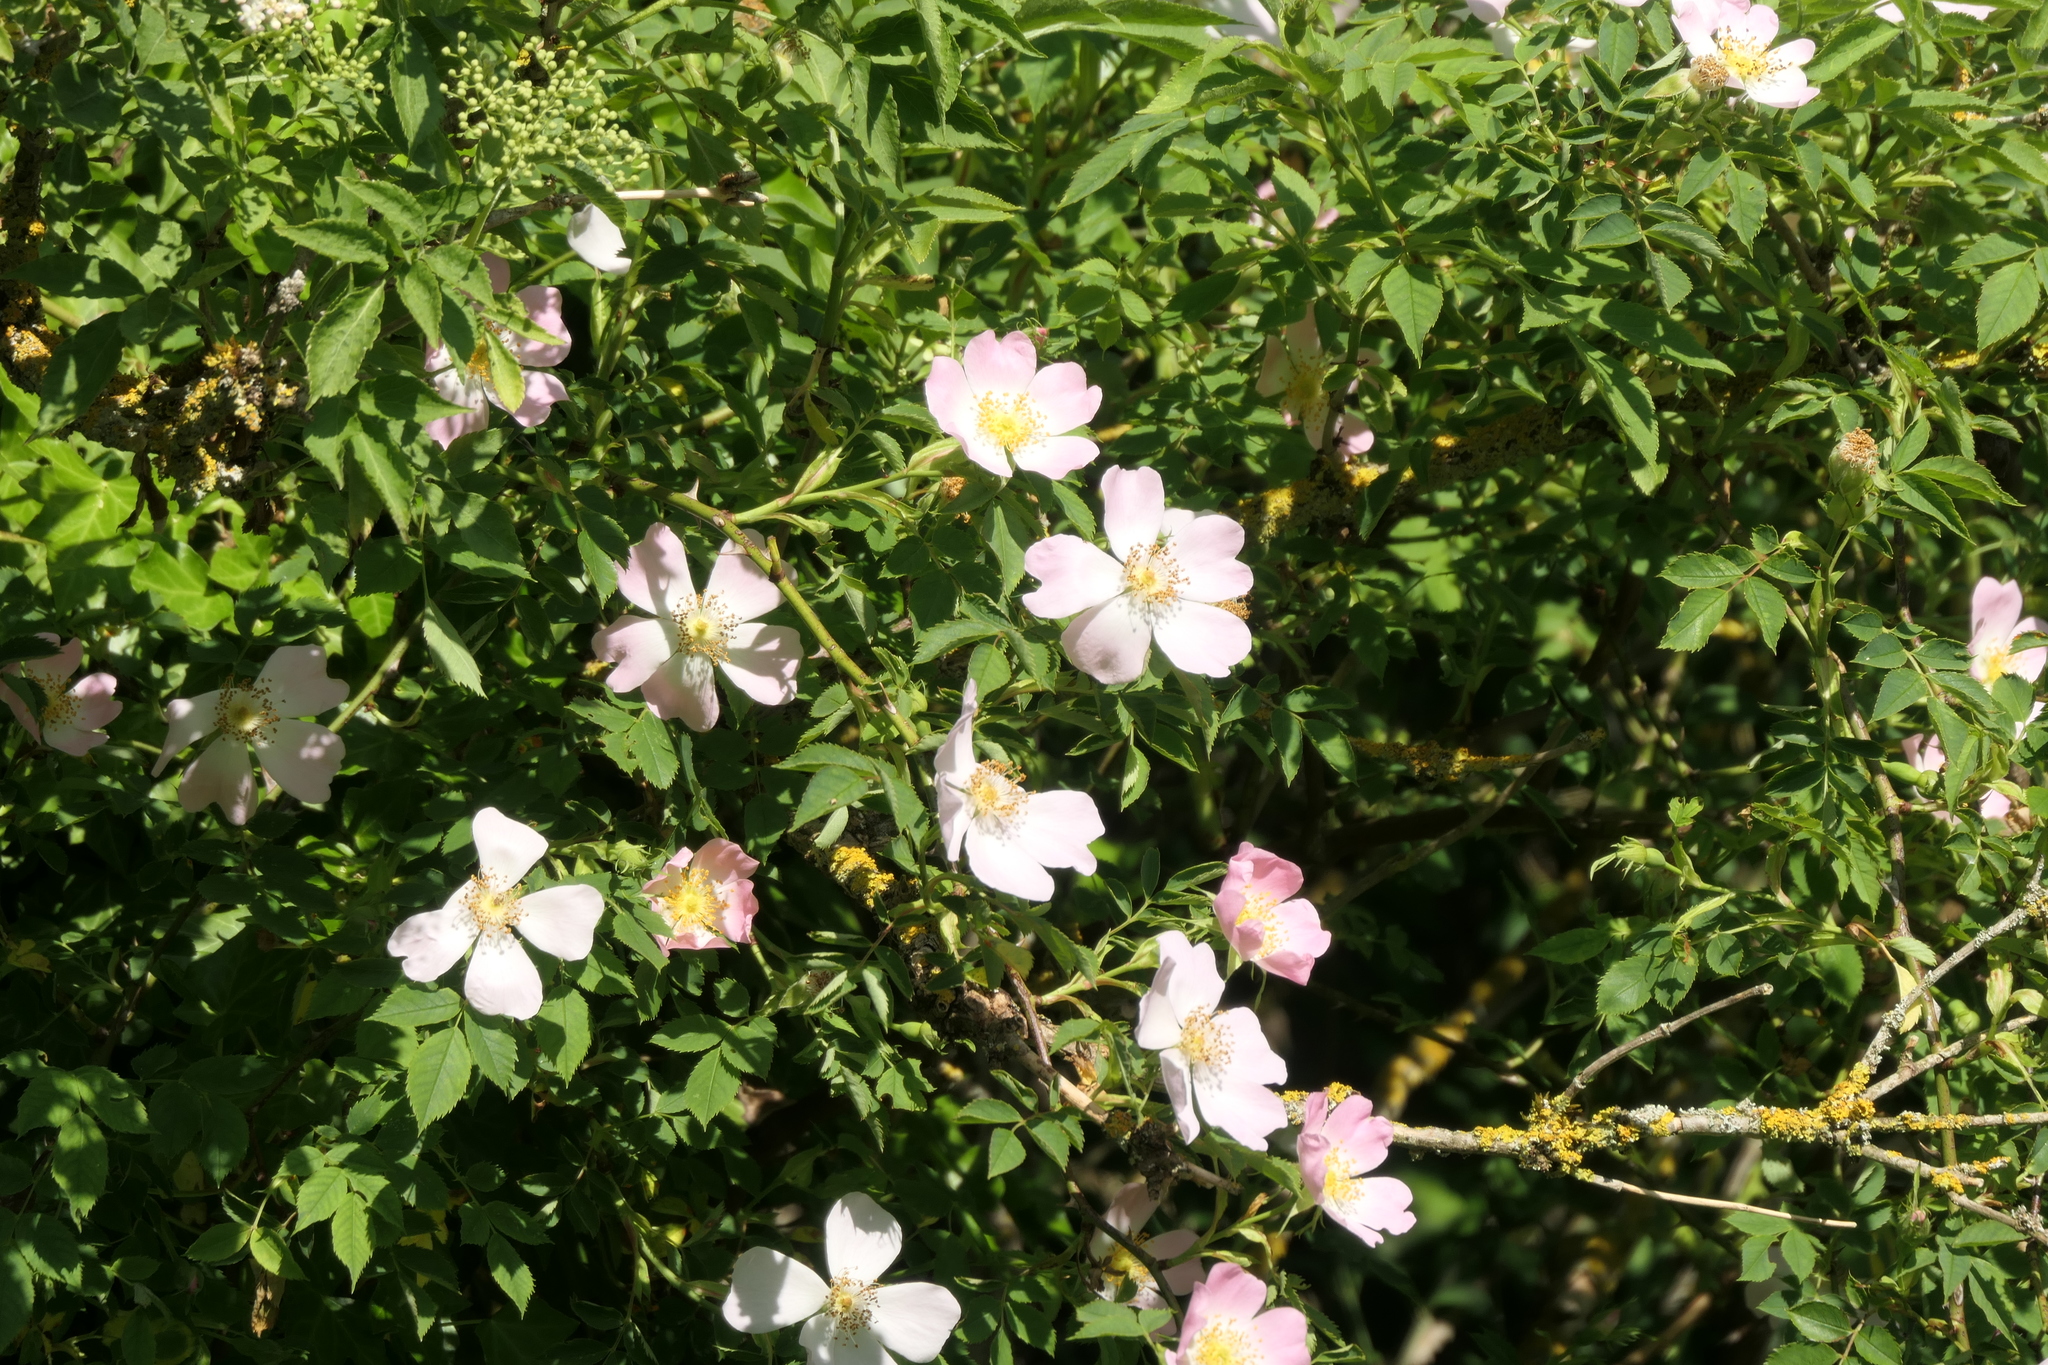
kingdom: Plantae
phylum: Tracheophyta
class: Magnoliopsida
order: Dipsacales
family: Viburnaceae
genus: Sambucus
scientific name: Sambucus nigra
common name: Elder
